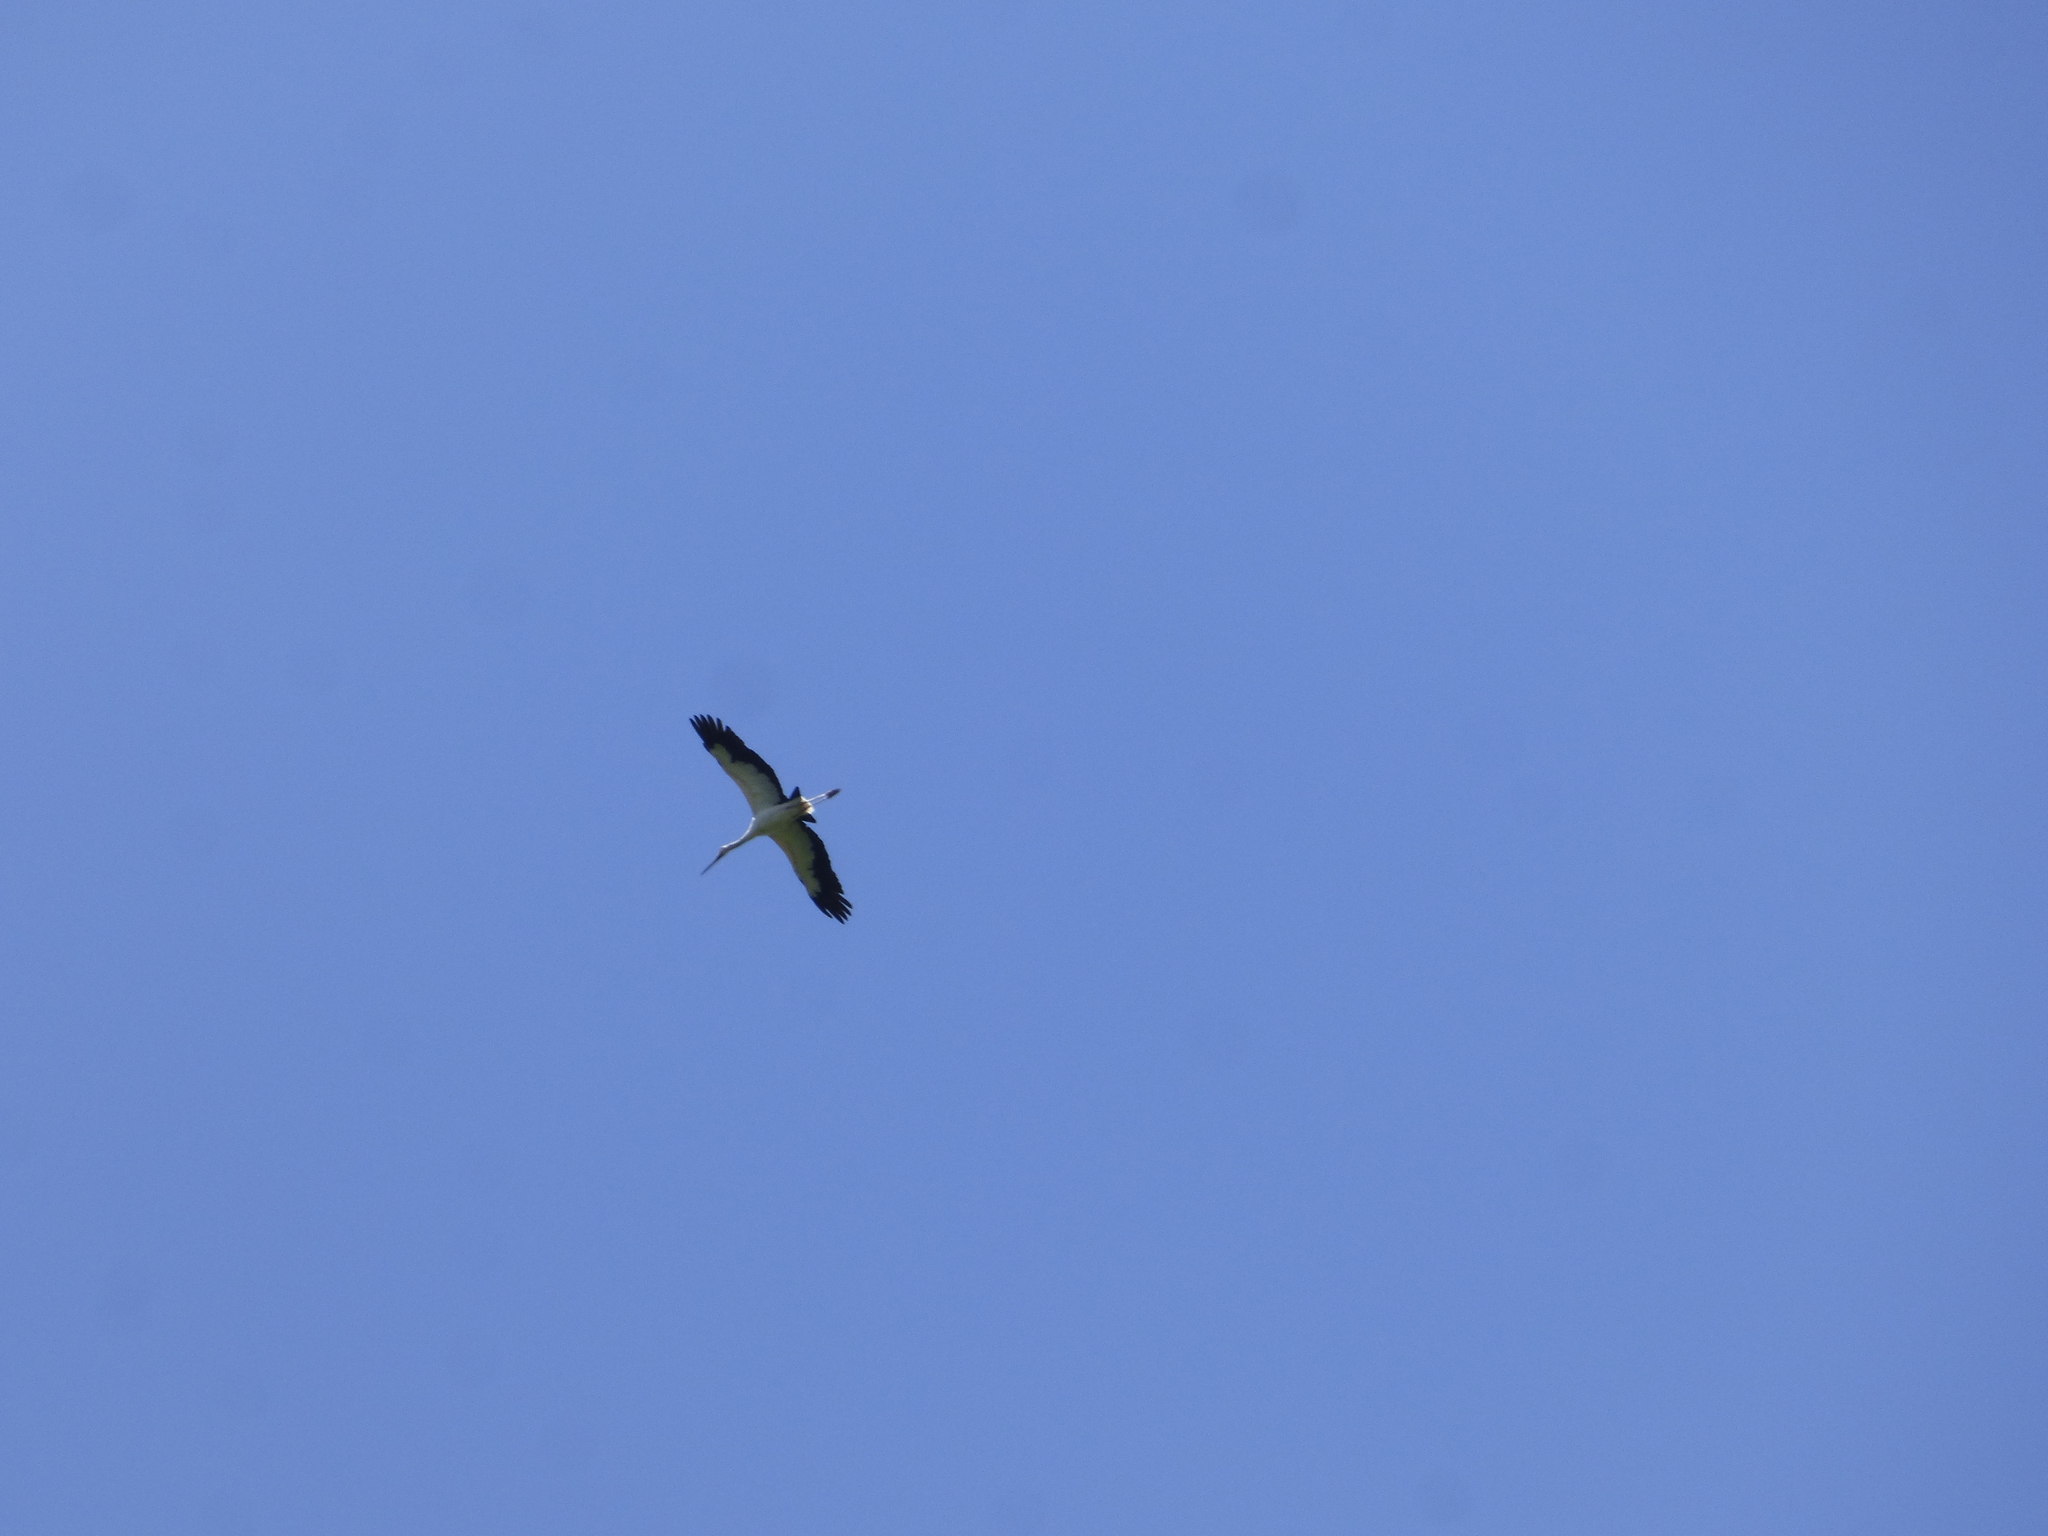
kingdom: Animalia
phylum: Chordata
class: Aves
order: Ciconiiformes
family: Ciconiidae
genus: Ciconia
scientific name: Ciconia maguari
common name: Maguari stork
